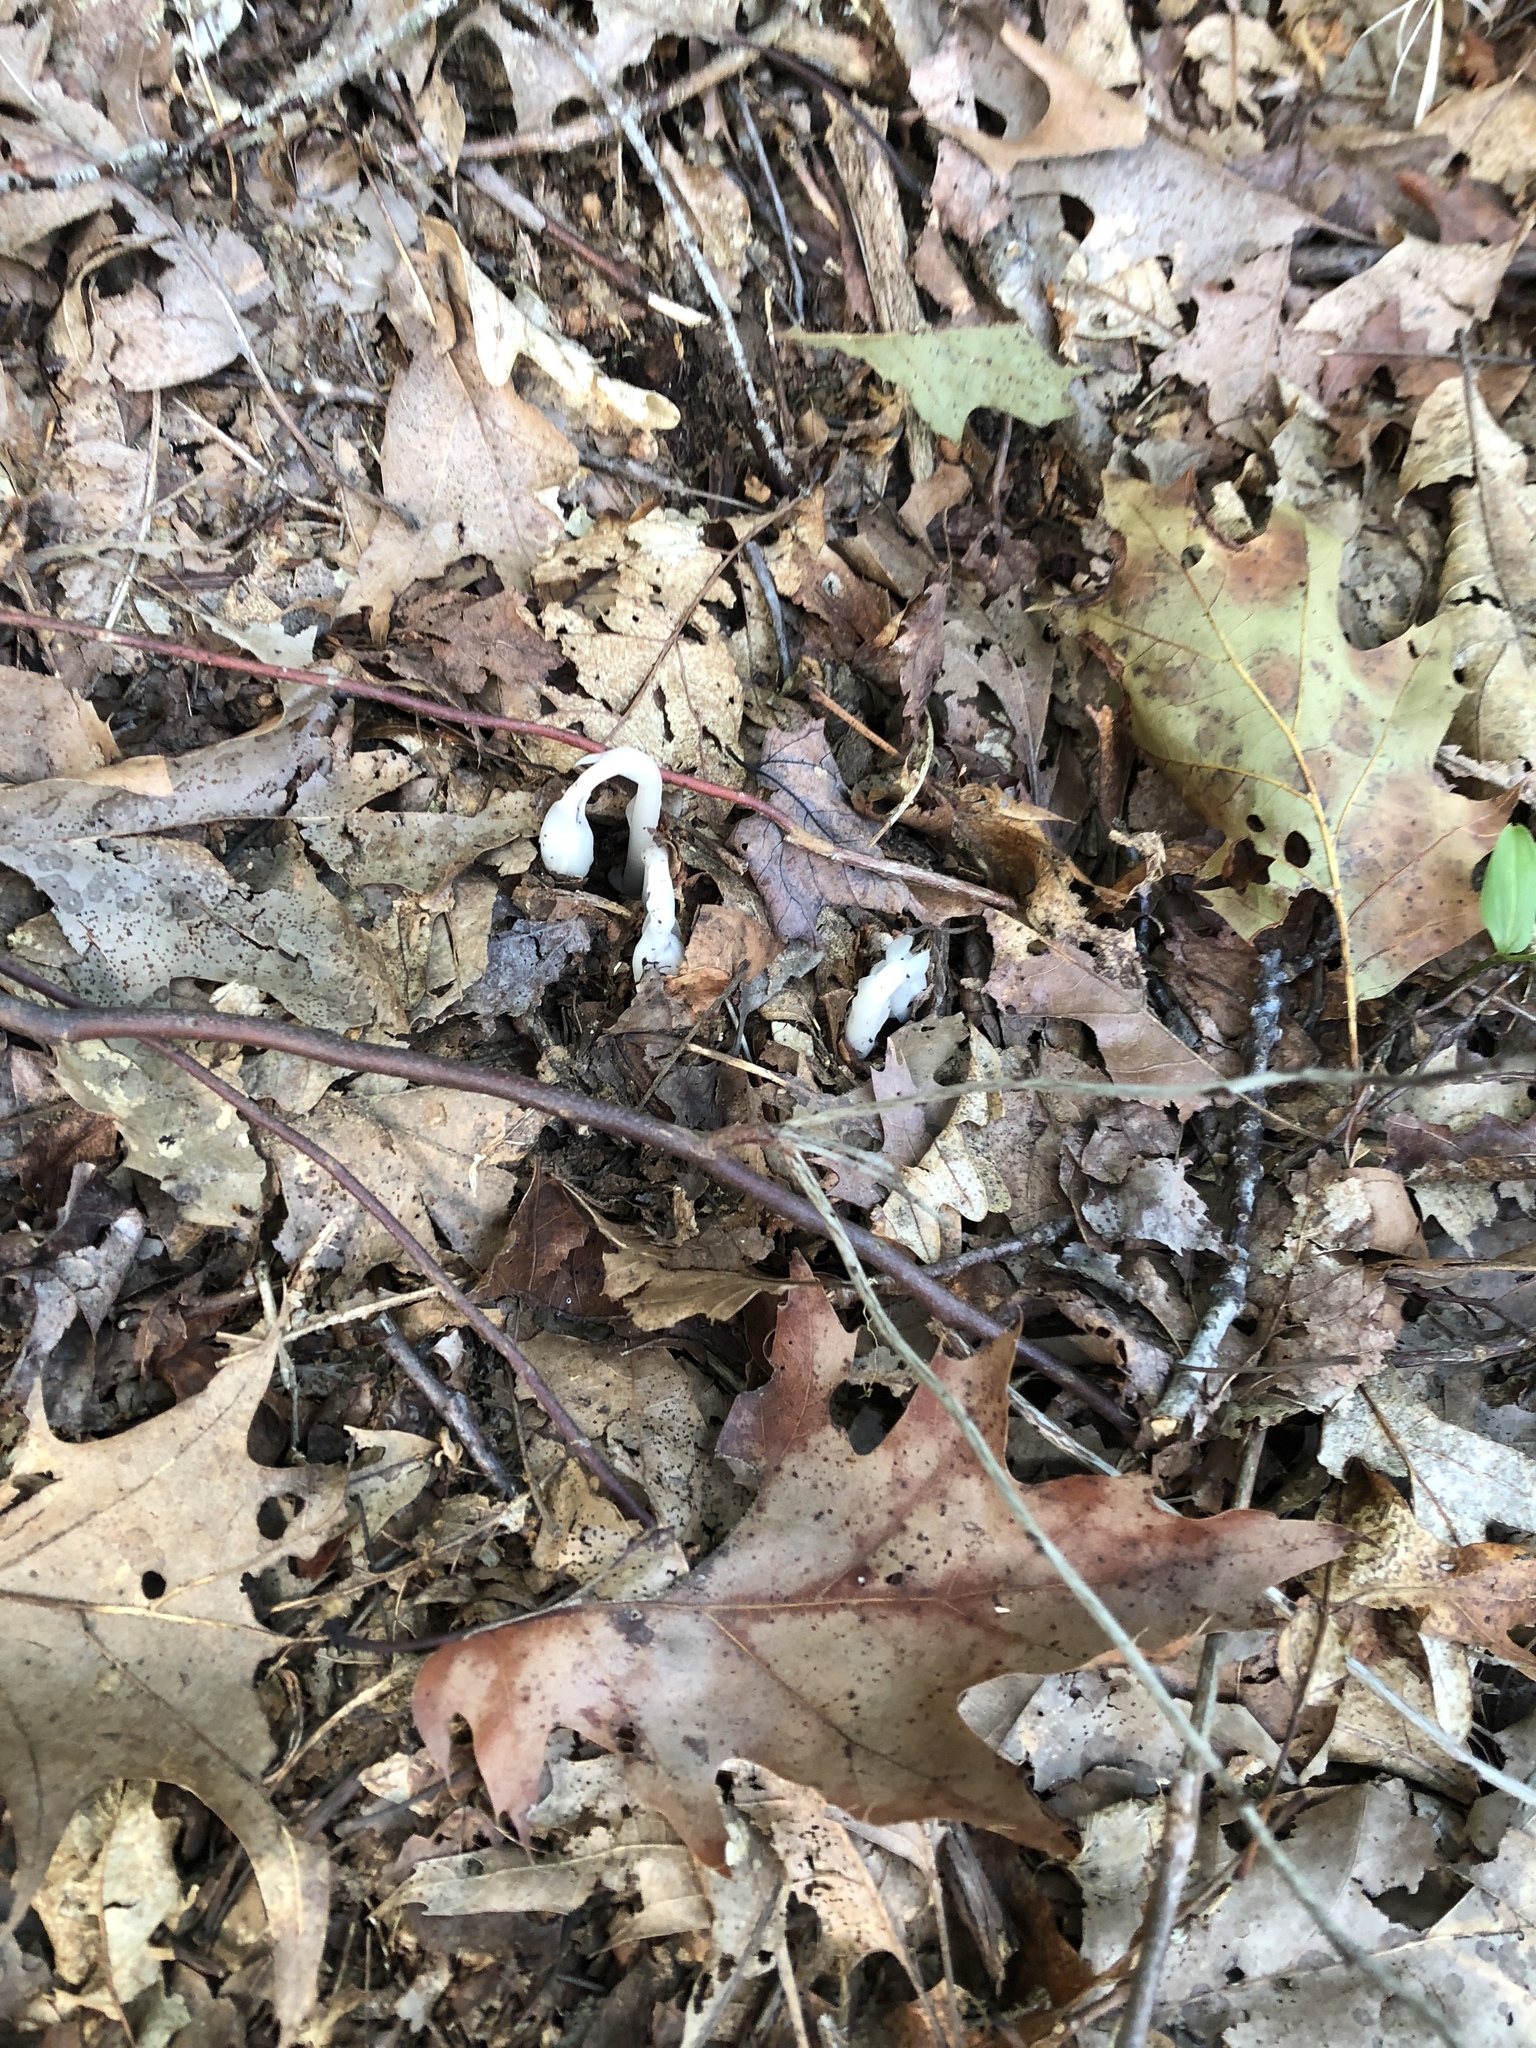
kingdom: Plantae
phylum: Tracheophyta
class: Magnoliopsida
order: Ericales
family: Ericaceae
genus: Monotropa
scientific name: Monotropa uniflora
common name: Convulsion root
